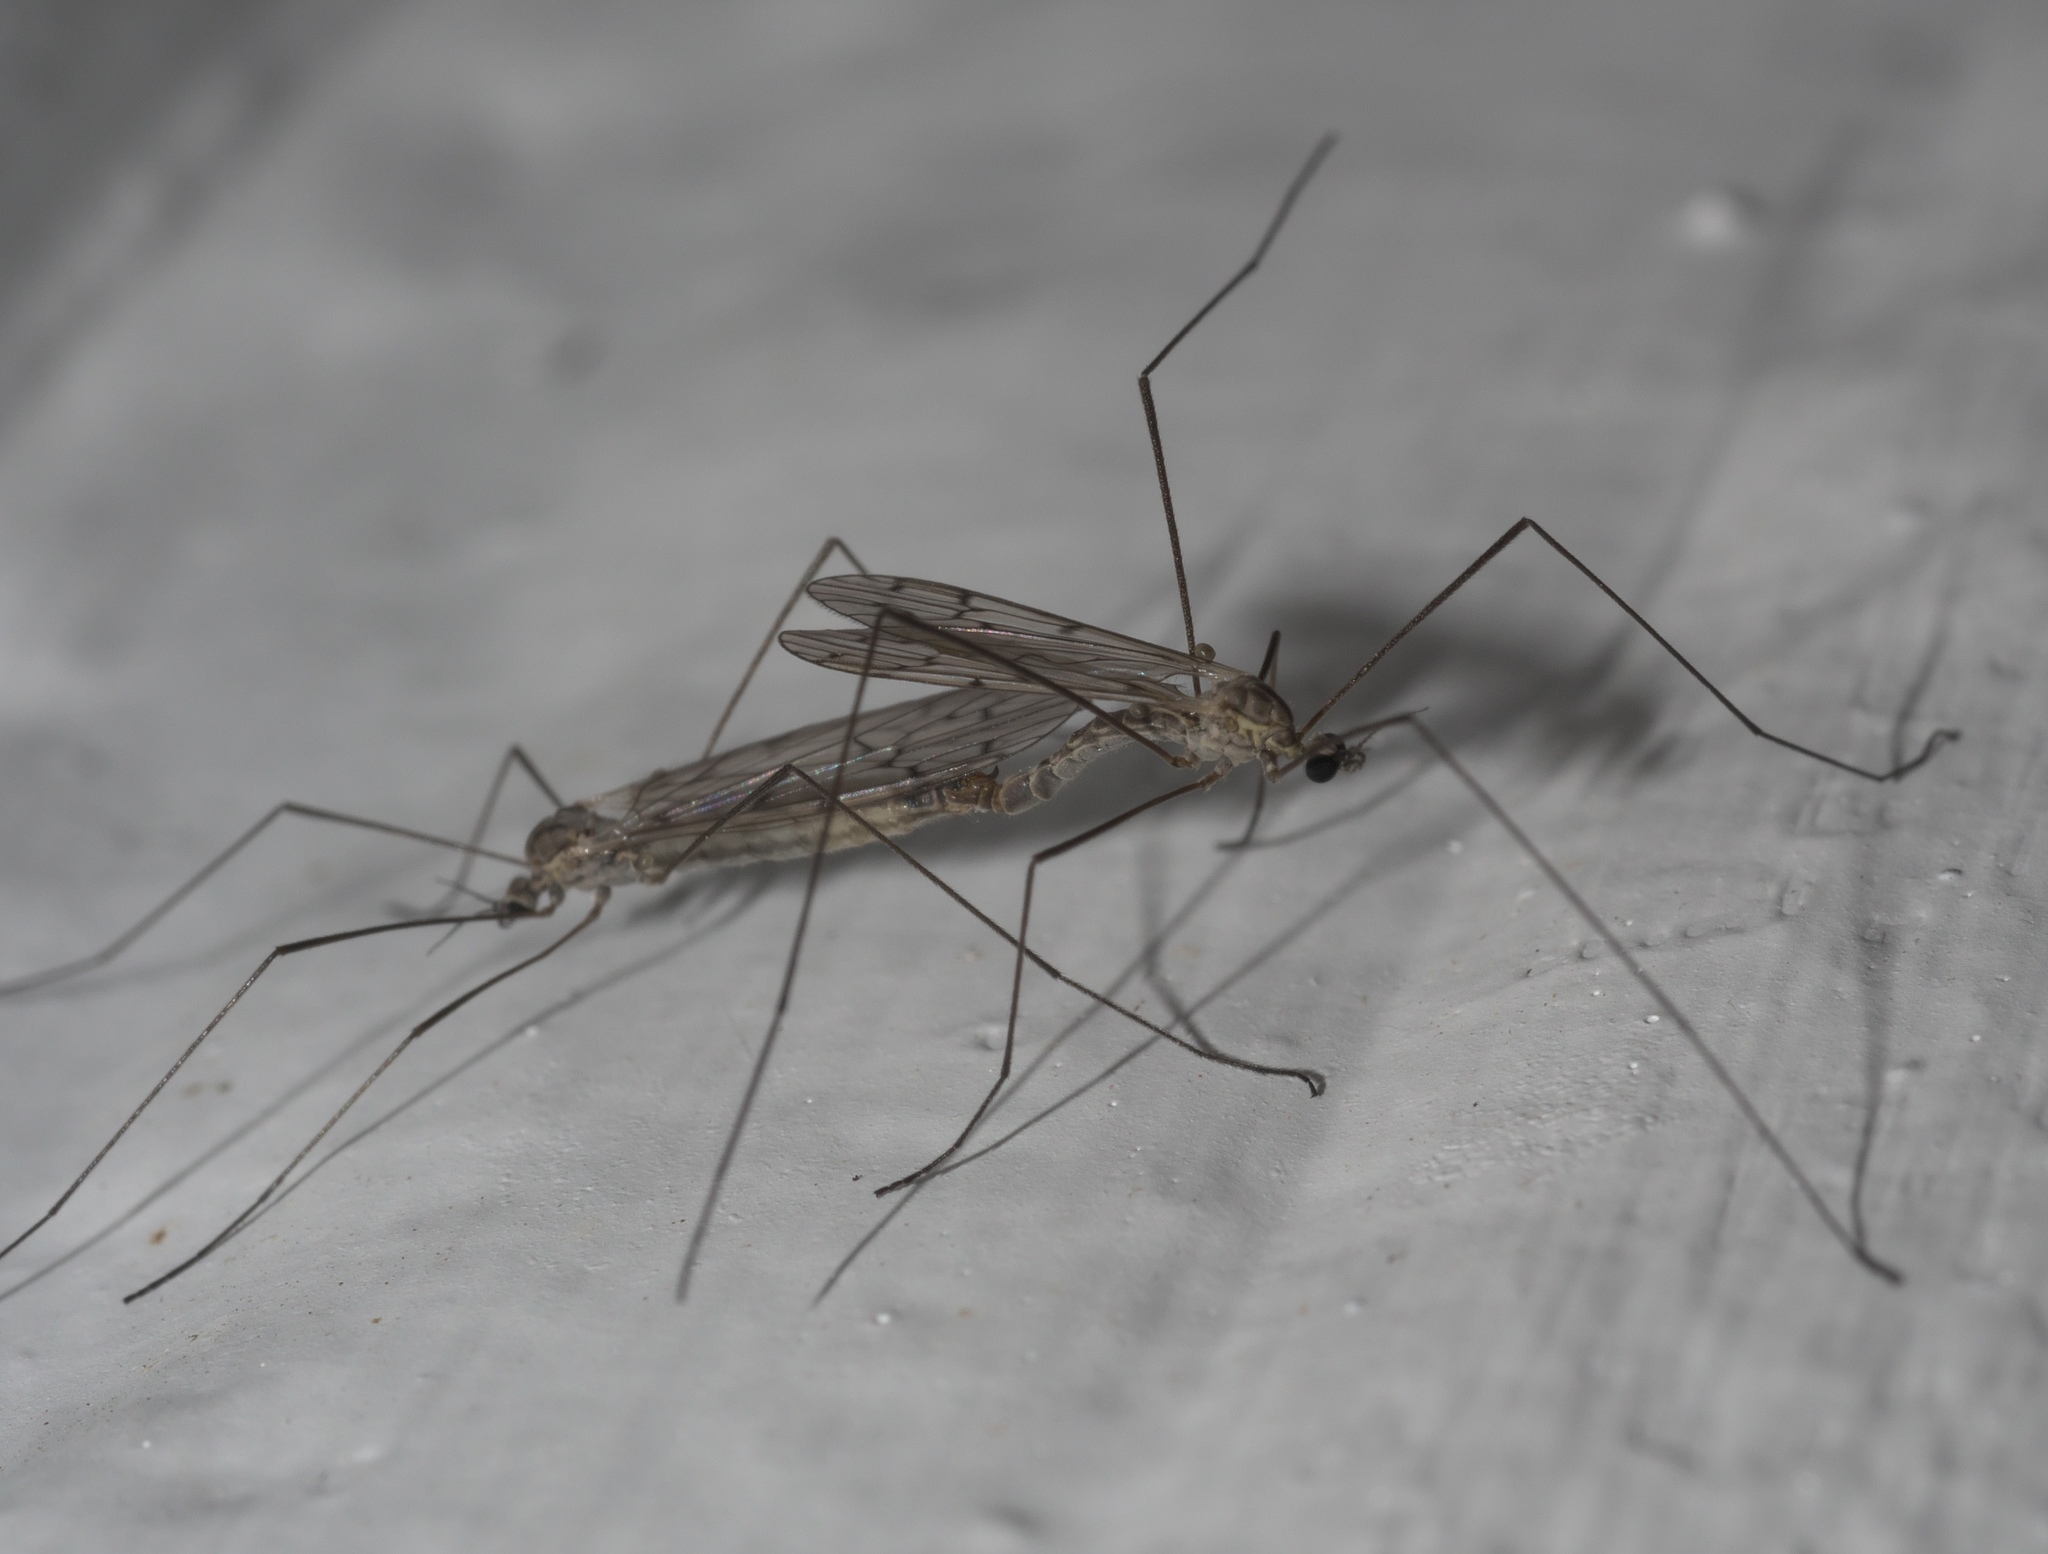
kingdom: Animalia
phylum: Arthropoda
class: Insecta
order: Diptera
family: Limoniidae
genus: Symplecta
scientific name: Symplecta cana
